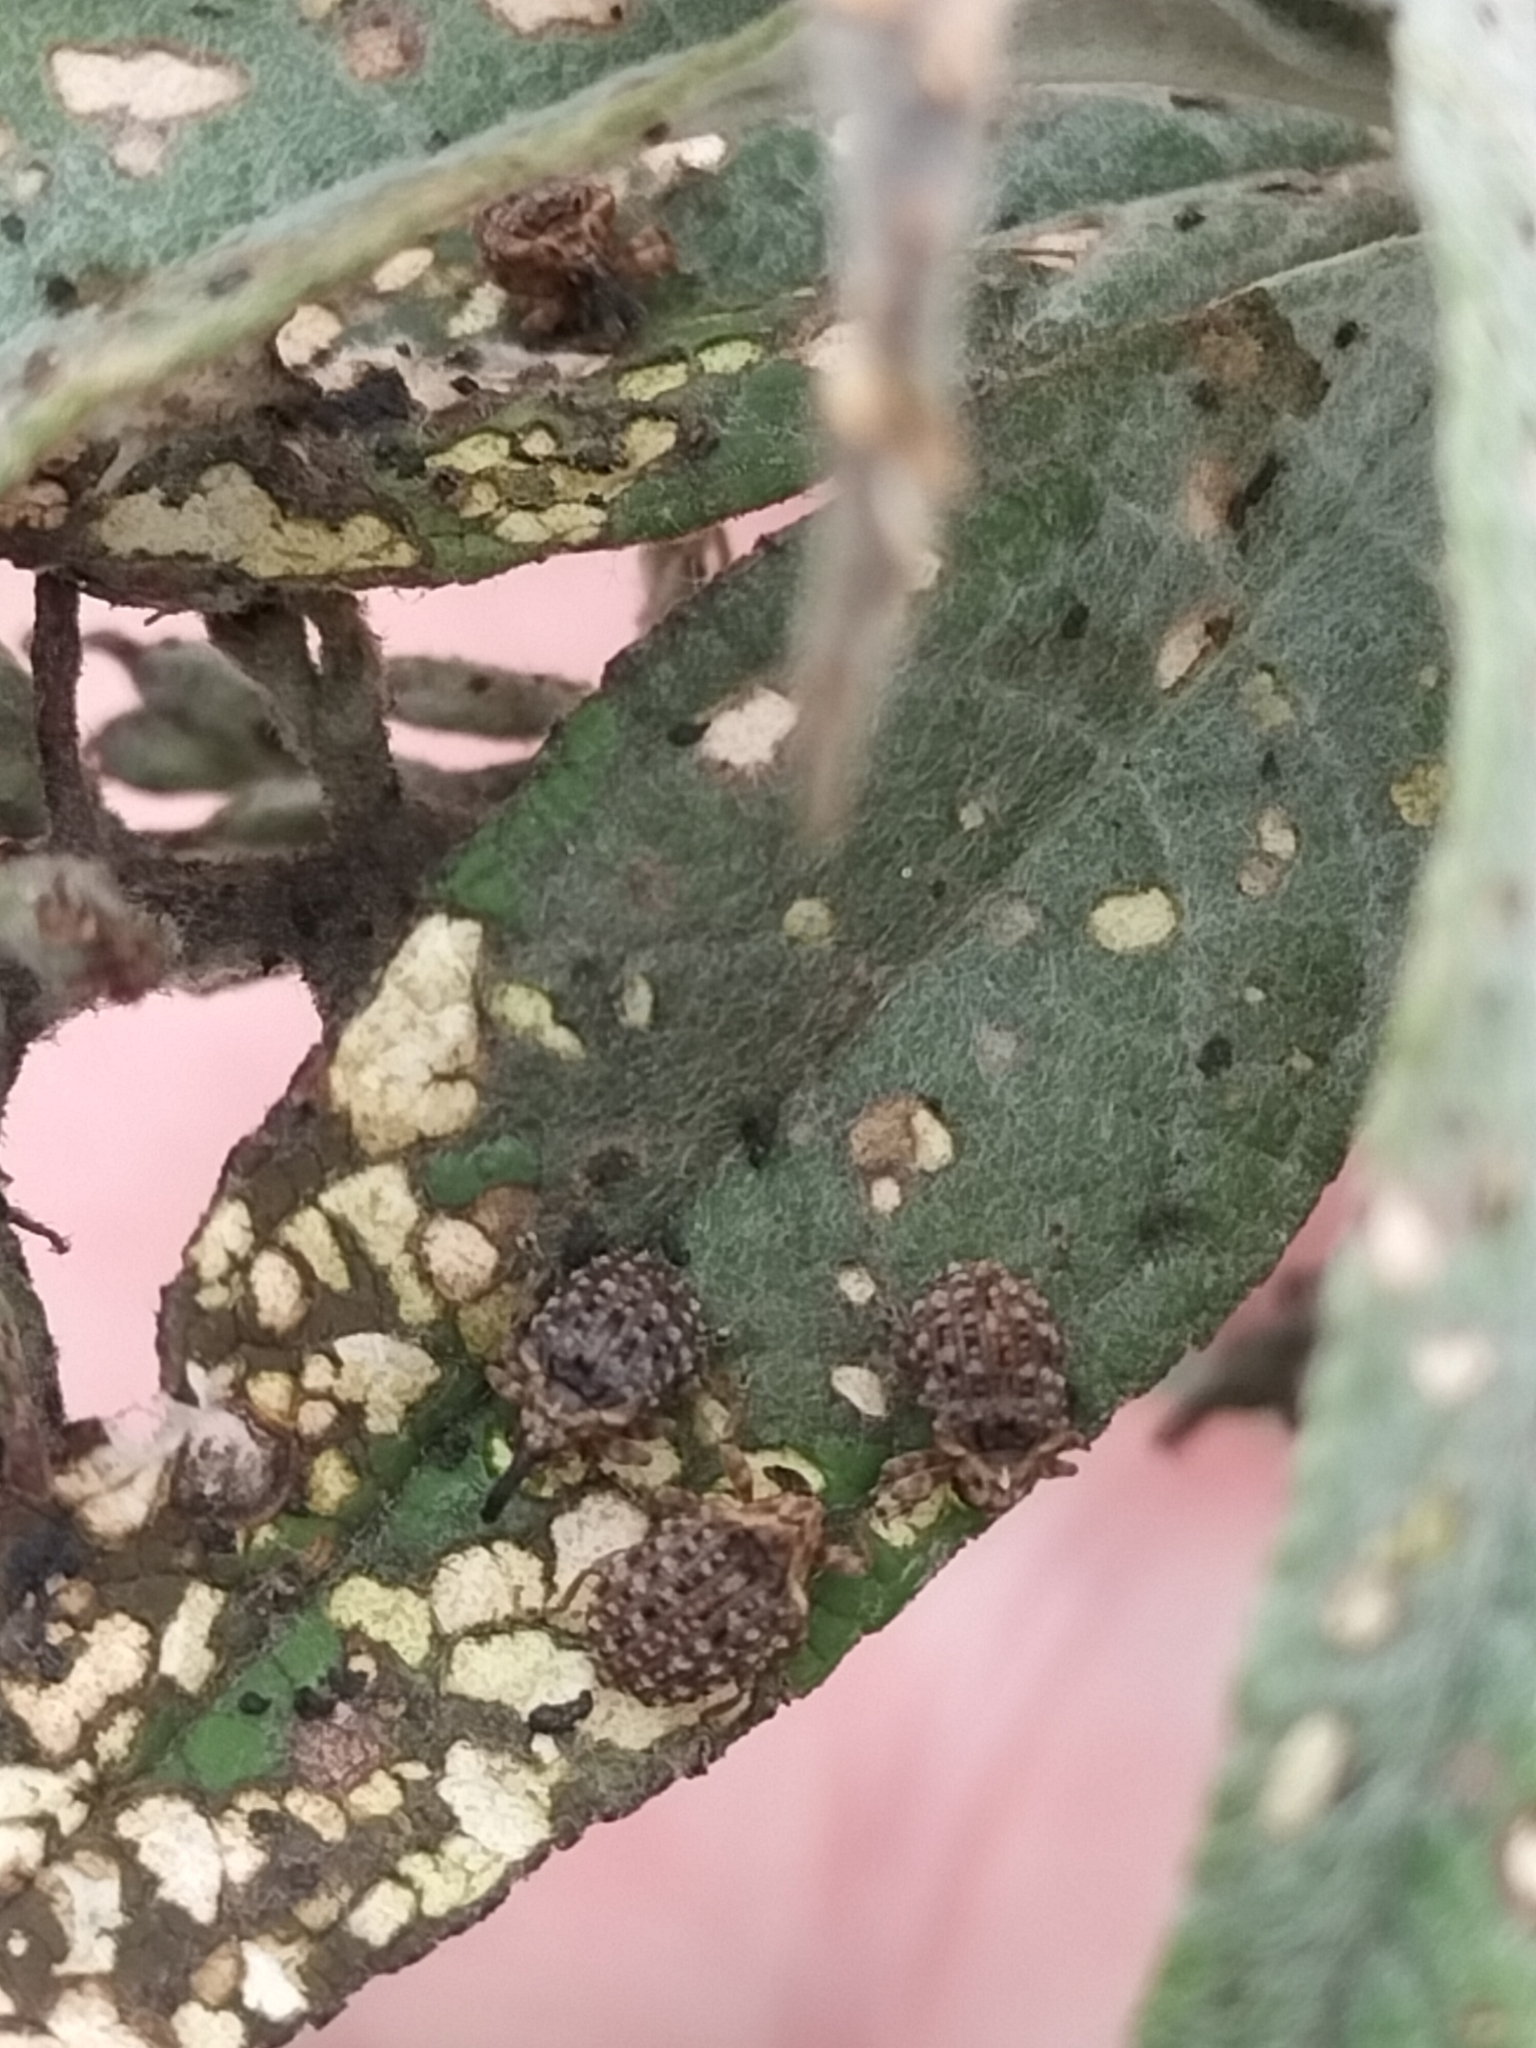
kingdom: Animalia
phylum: Arthropoda
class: Insecta
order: Coleoptera
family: Curculionidae
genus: Cleopus
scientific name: Cleopus japonicus
